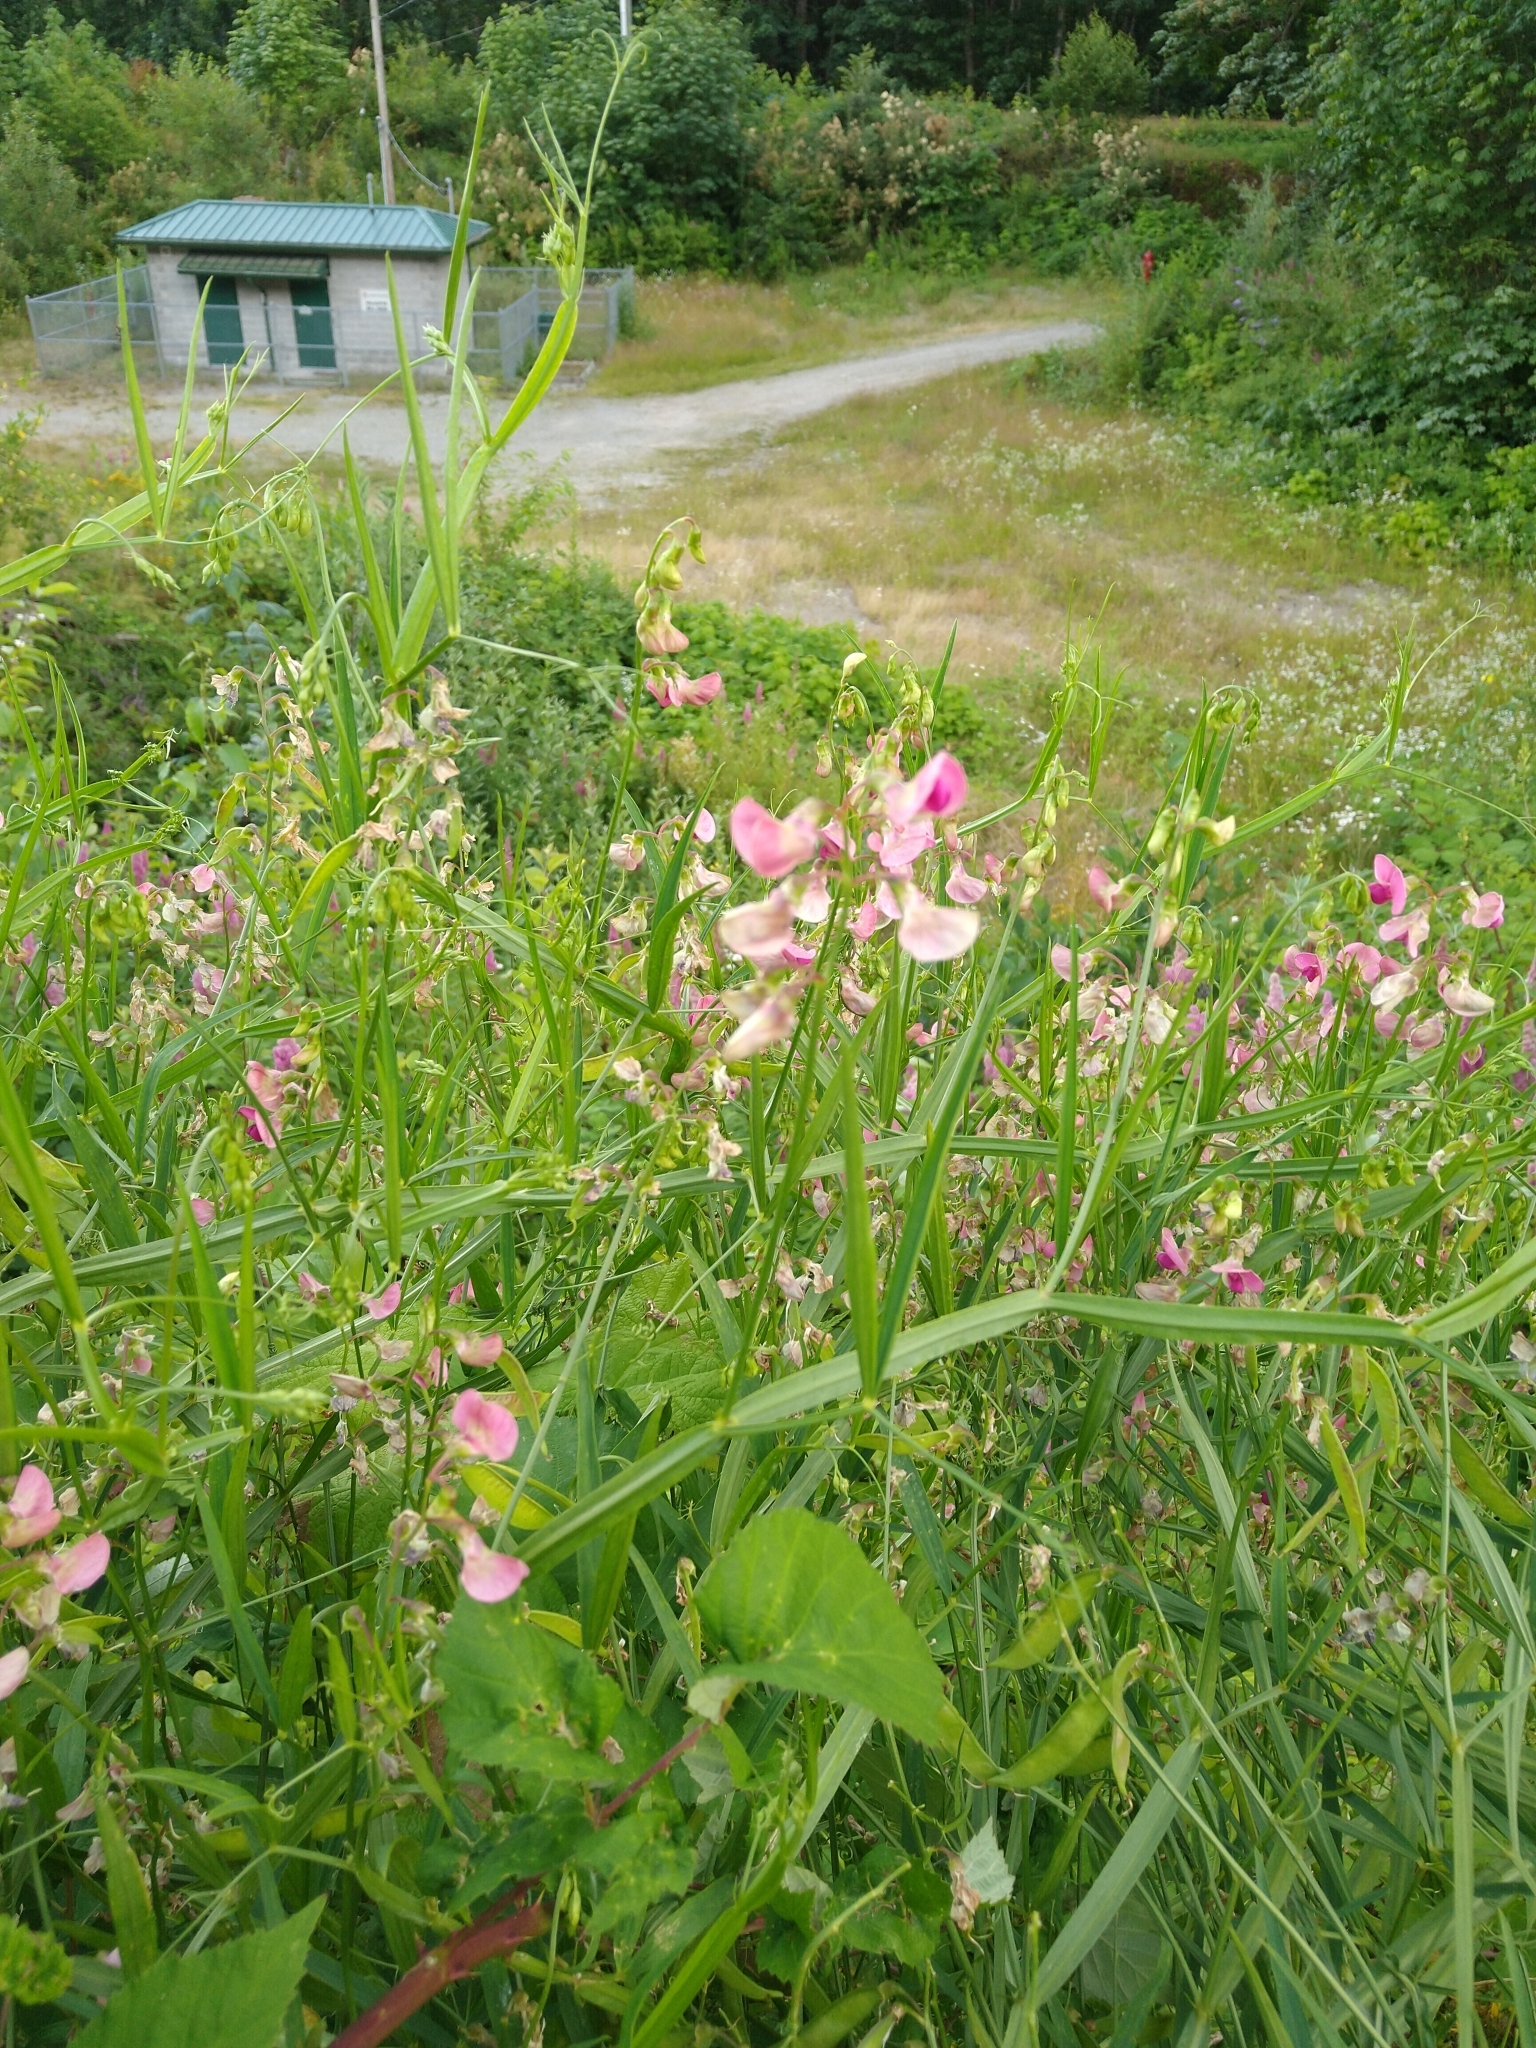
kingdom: Plantae
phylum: Tracheophyta
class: Magnoliopsida
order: Fabales
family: Fabaceae
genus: Lathyrus
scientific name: Lathyrus sylvestris
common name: Flat pea
